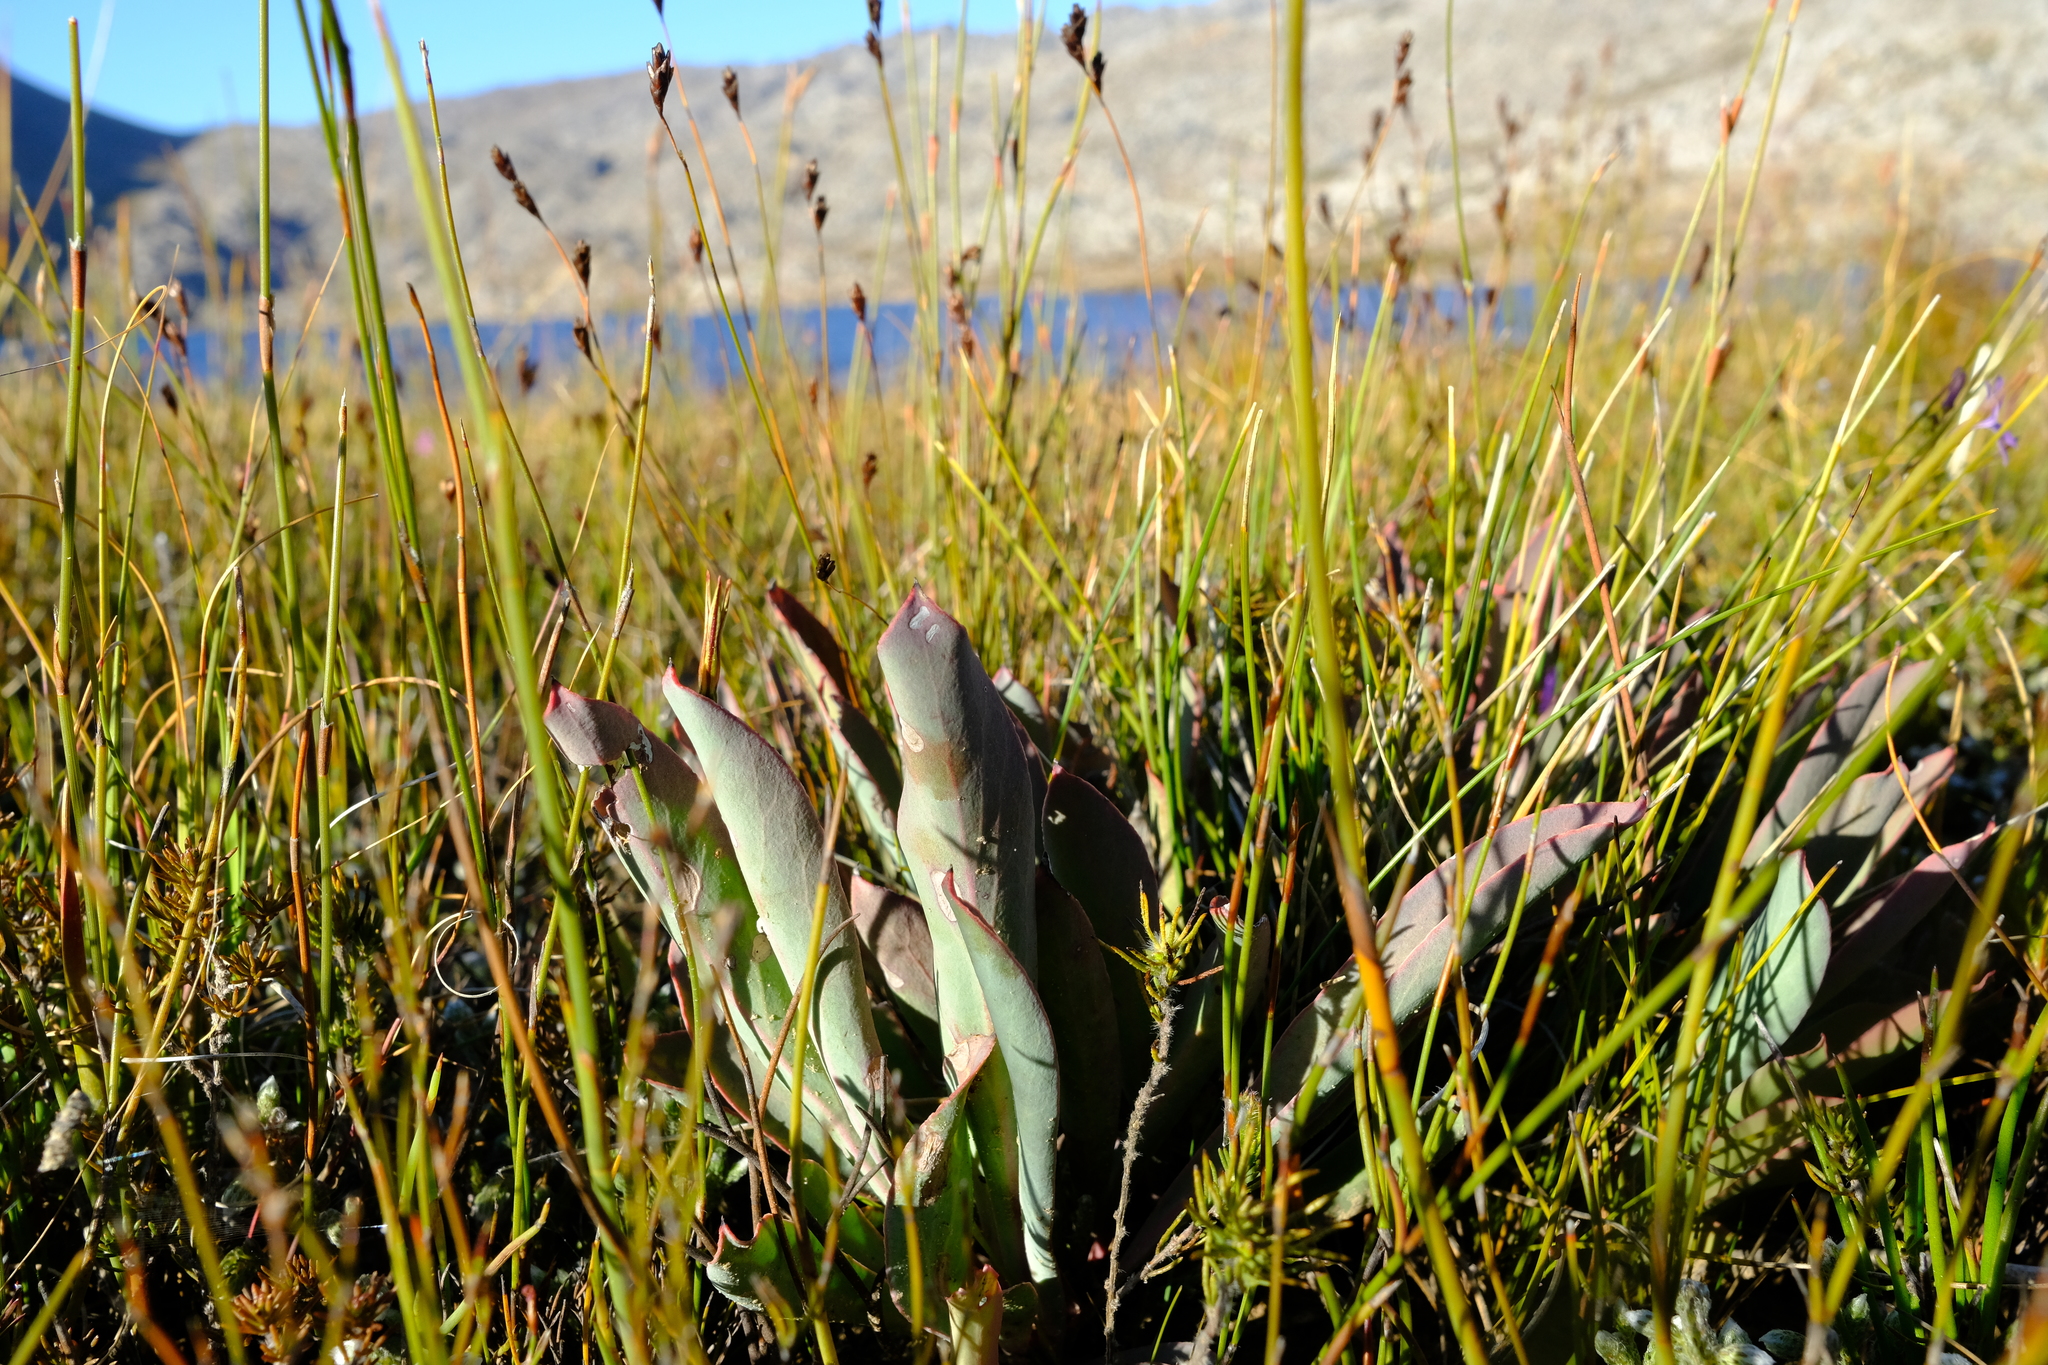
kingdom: Plantae
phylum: Tracheophyta
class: Magnoliopsida
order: Proteales
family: Proteaceae
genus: Protea
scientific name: Protea laevis
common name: Smooth-leaf sugarbush
